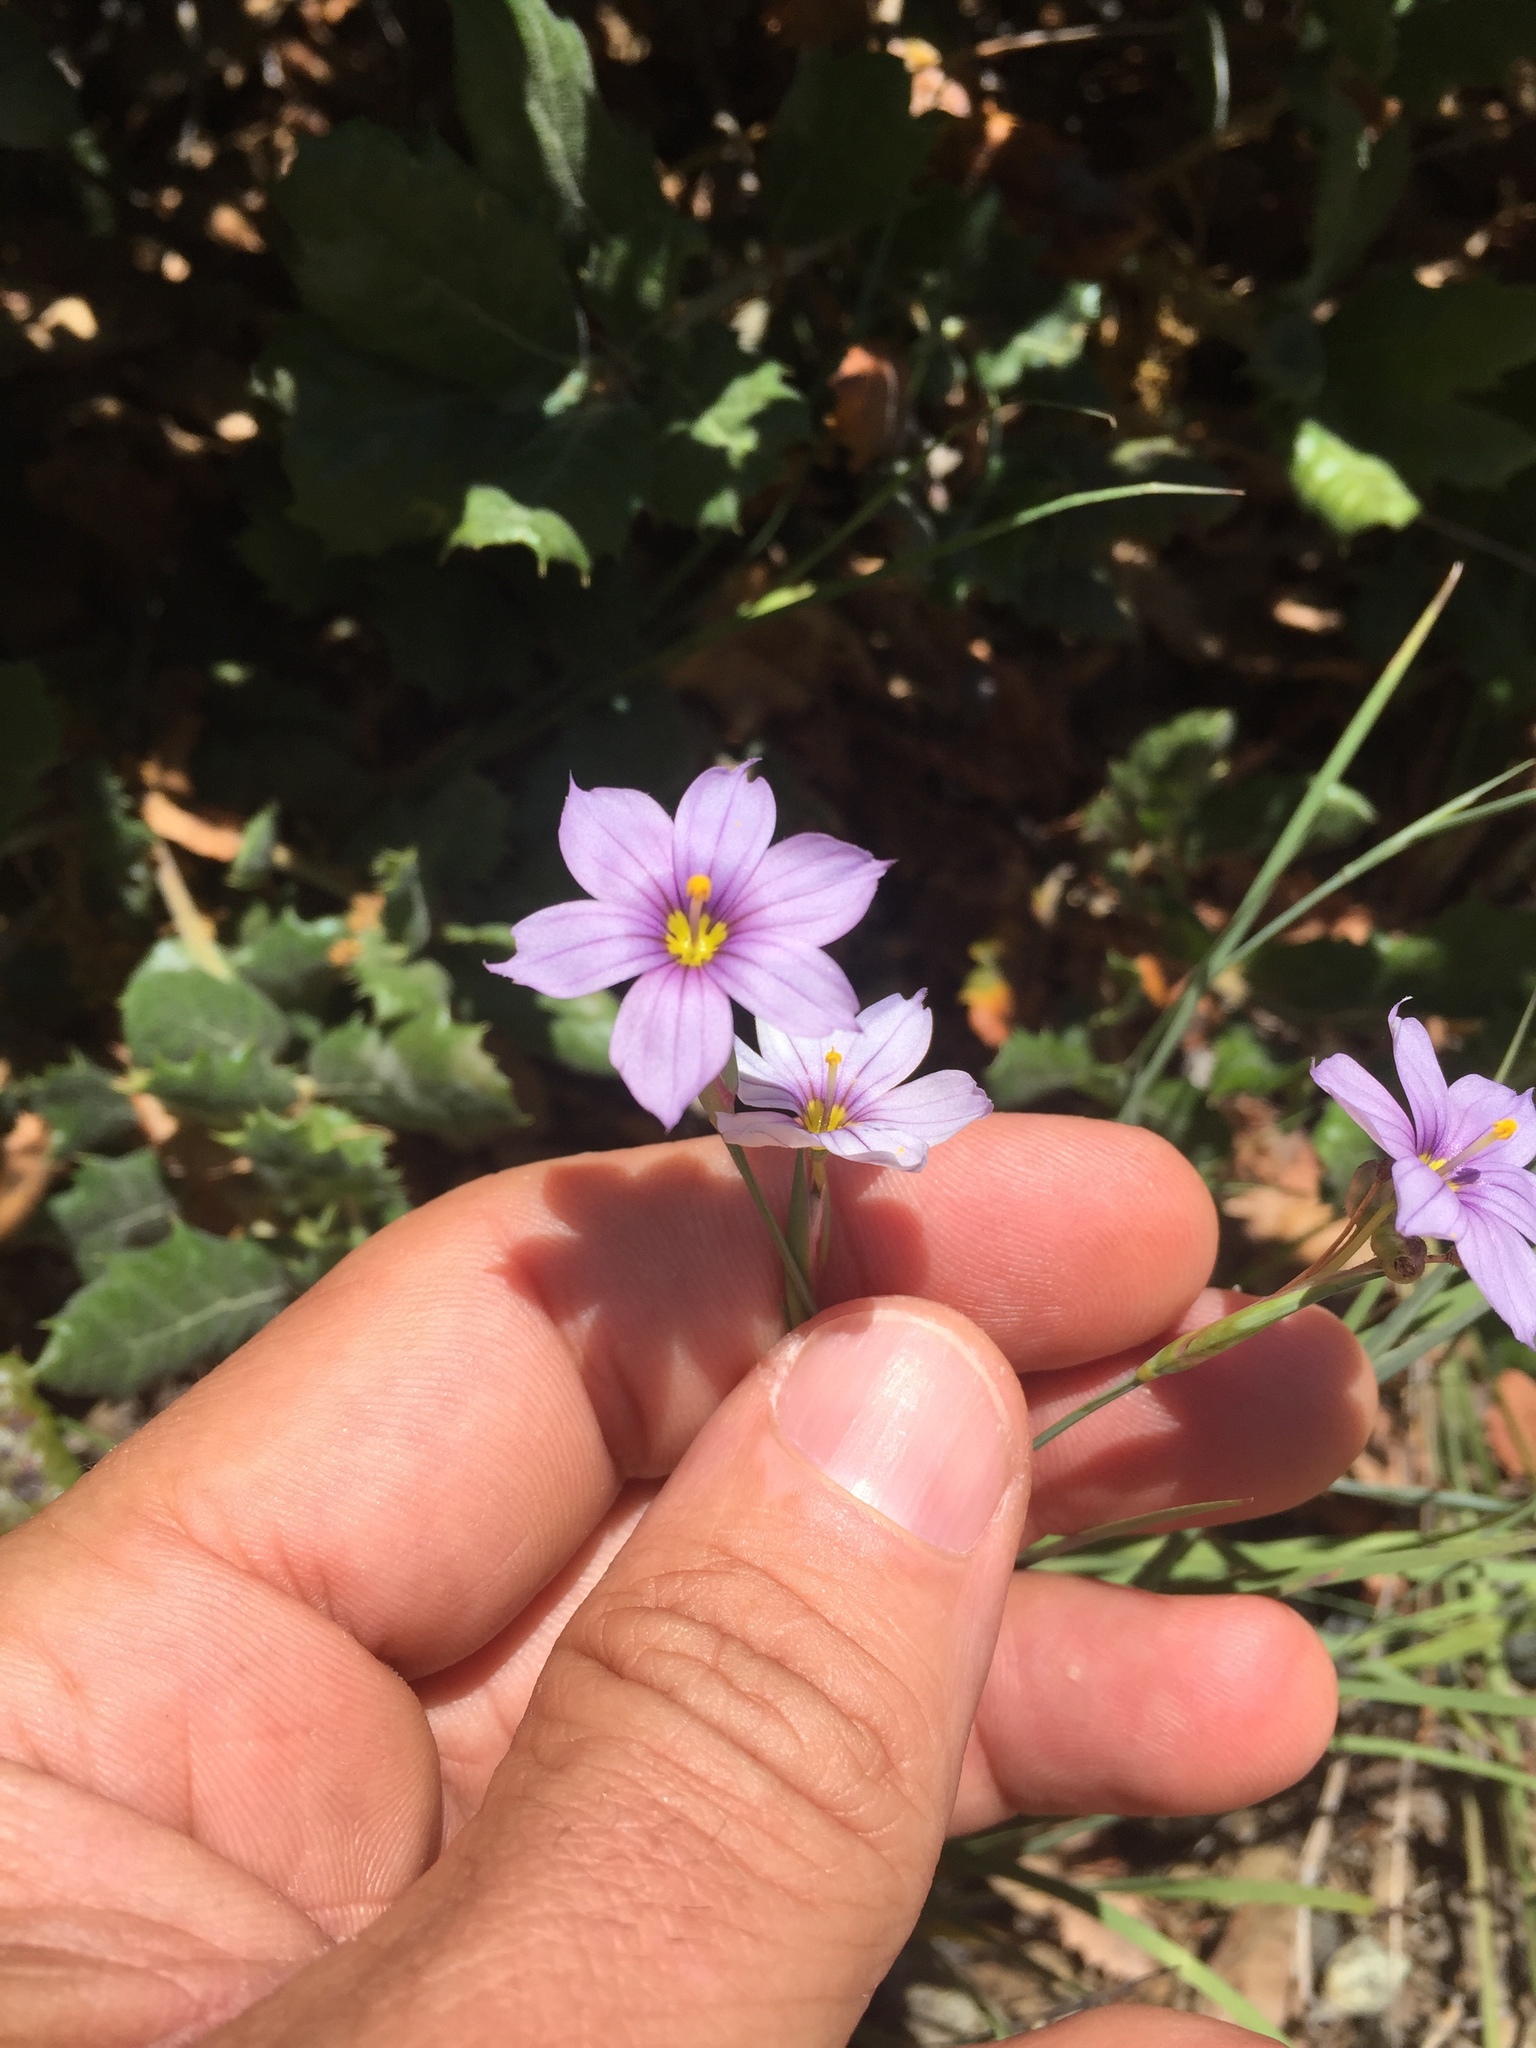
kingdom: Plantae
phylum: Tracheophyta
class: Liliopsida
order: Asparagales
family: Iridaceae
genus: Sisyrinchium
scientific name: Sisyrinchium bellum
